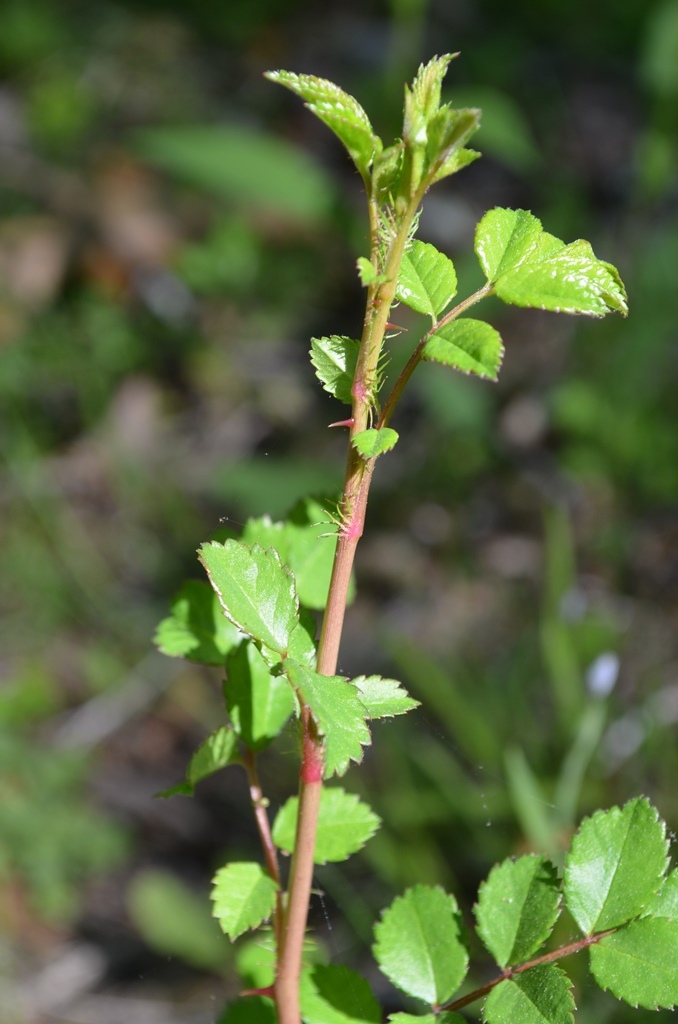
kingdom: Plantae
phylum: Tracheophyta
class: Magnoliopsida
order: Rosales
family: Rosaceae
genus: Rosa
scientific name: Rosa multiflora
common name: Multiflora rose
